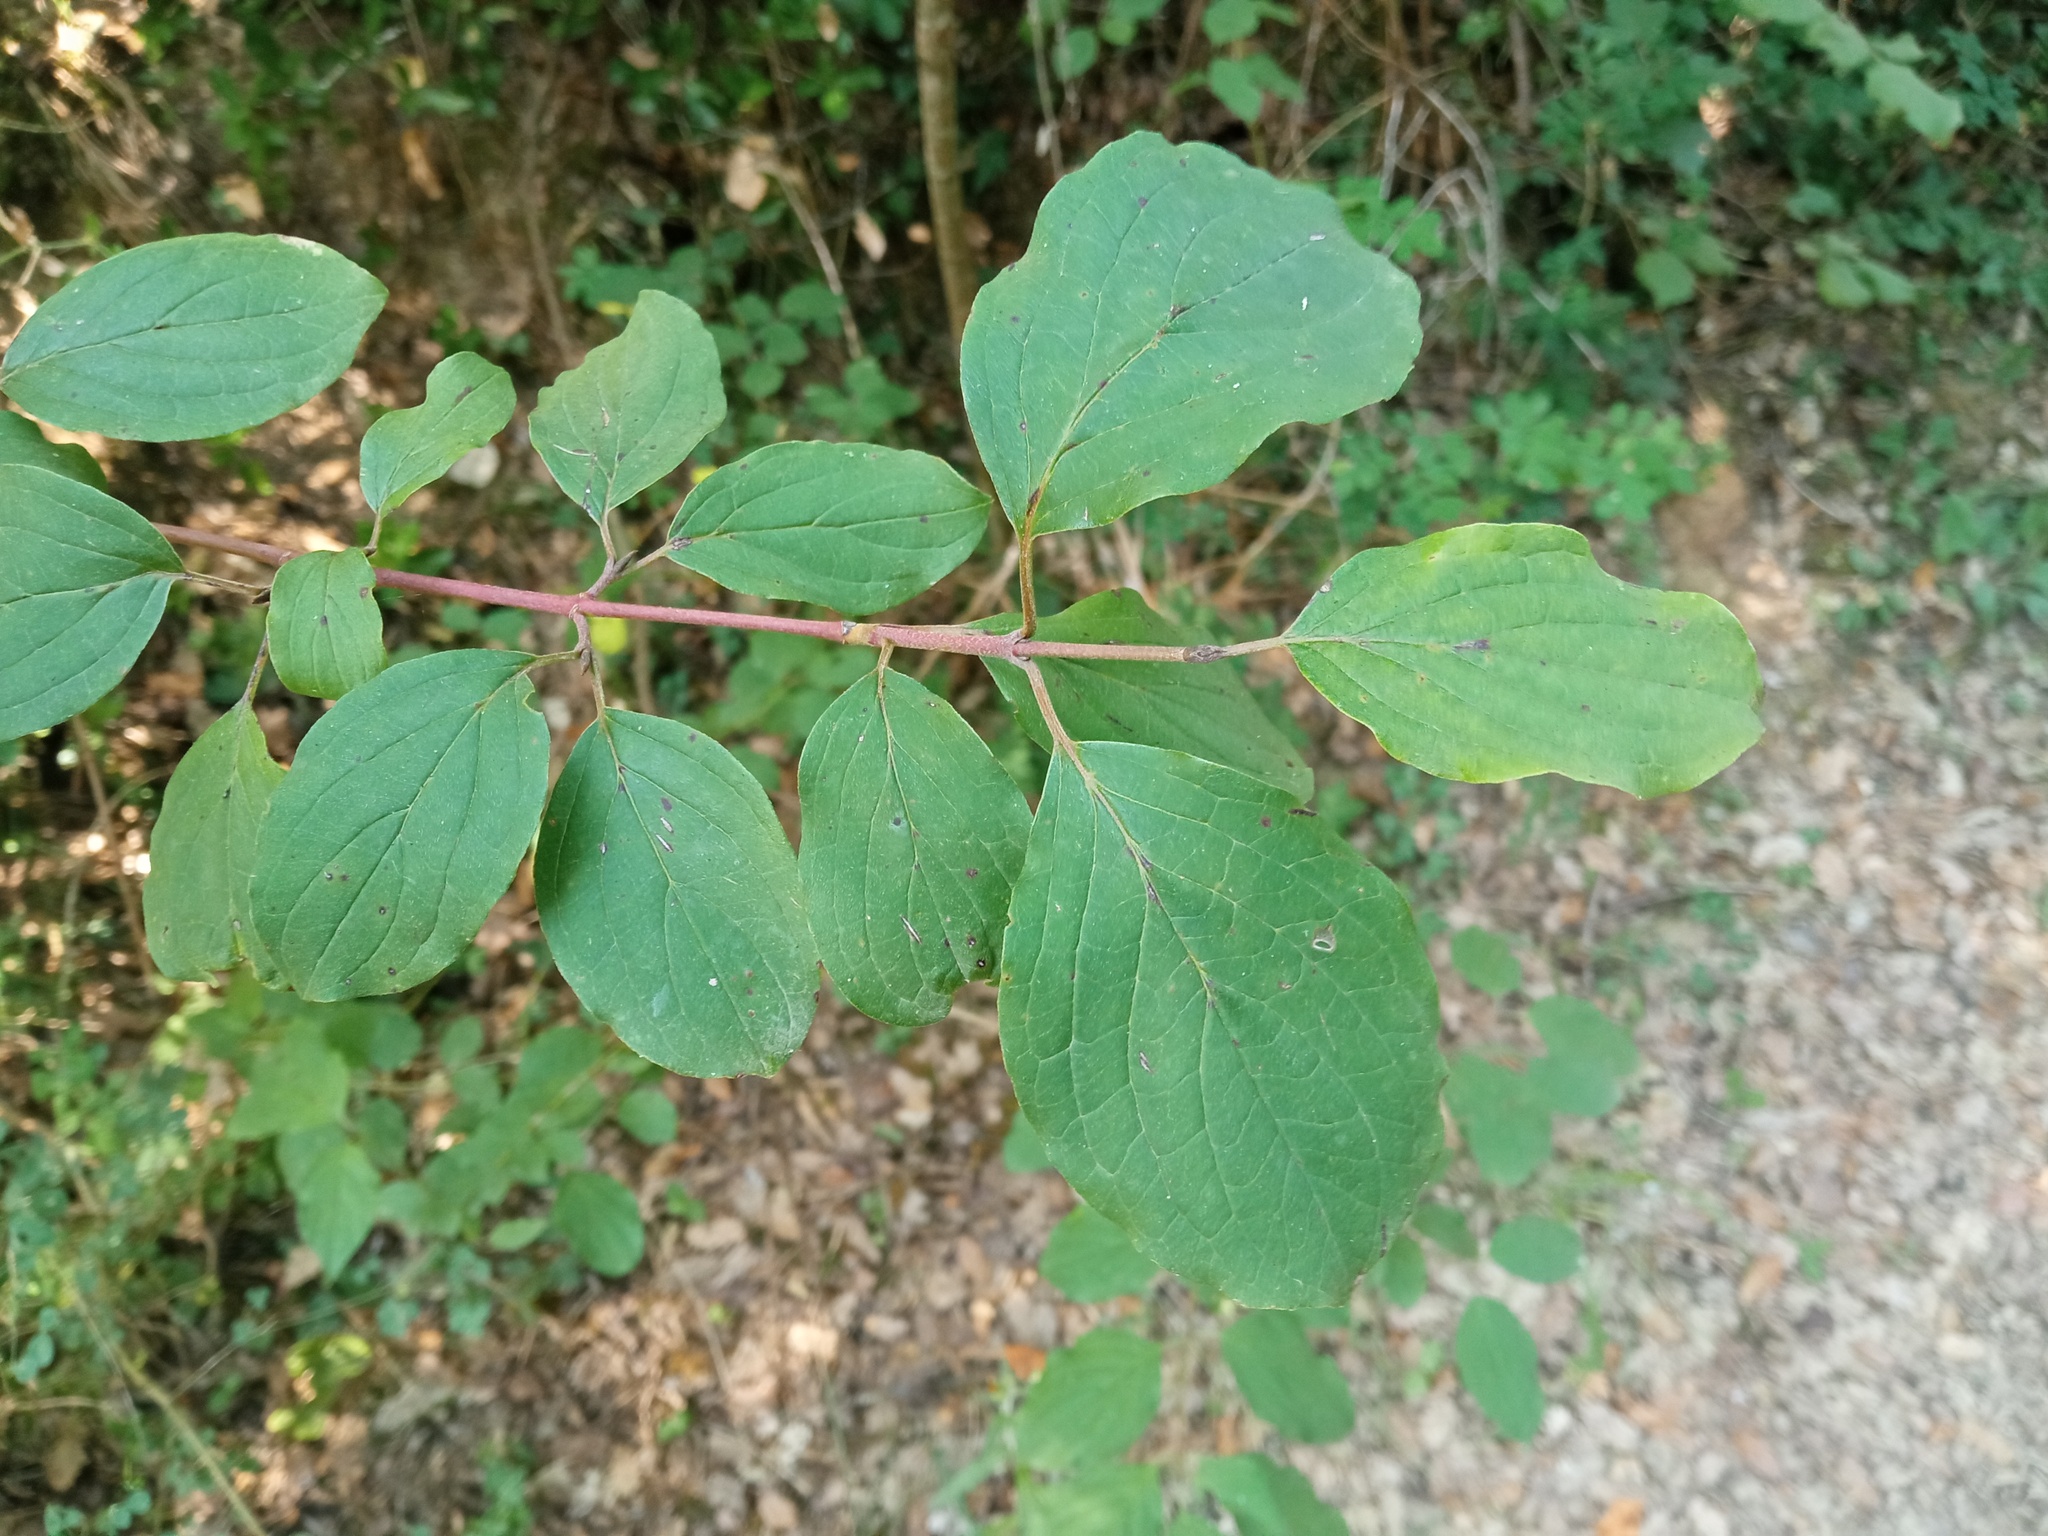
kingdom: Plantae
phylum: Tracheophyta
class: Magnoliopsida
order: Cornales
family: Cornaceae
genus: Cornus
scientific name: Cornus sanguinea
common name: Dogwood
